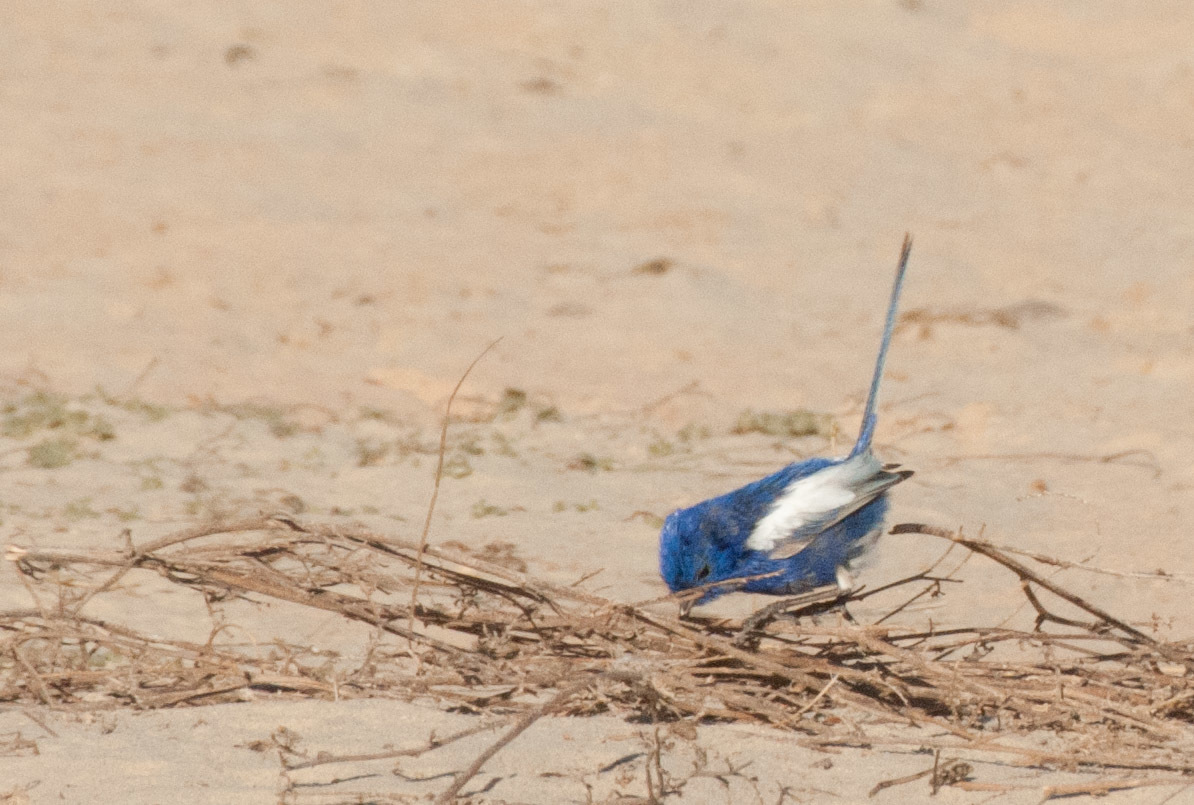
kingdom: Animalia
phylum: Chordata
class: Aves
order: Passeriformes
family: Maluridae
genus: Malurus
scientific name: Malurus leucopterus
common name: White-winged fairywren
